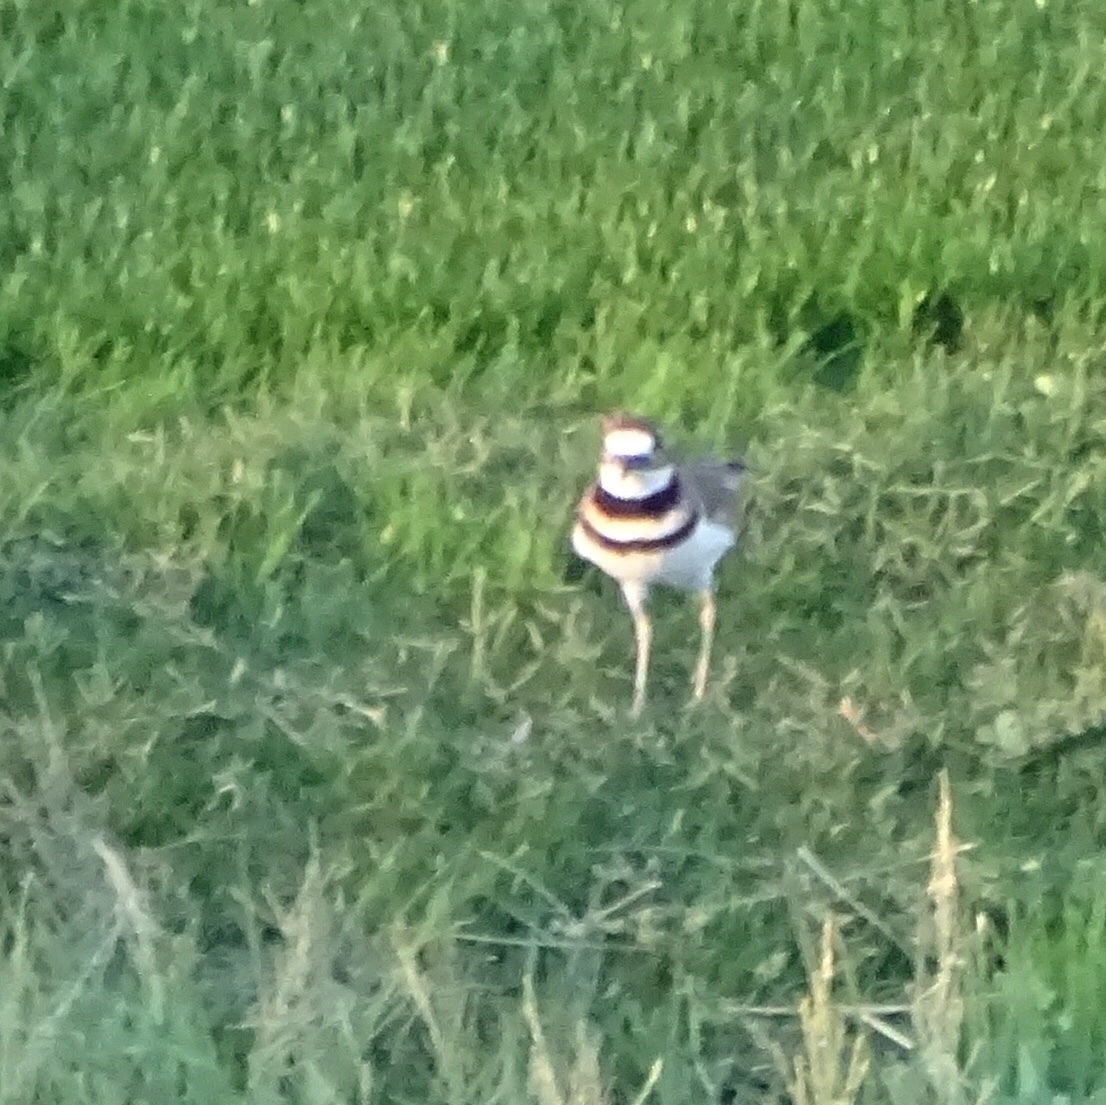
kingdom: Animalia
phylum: Chordata
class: Aves
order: Charadriiformes
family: Charadriidae
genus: Charadrius
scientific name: Charadrius vociferus
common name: Killdeer
